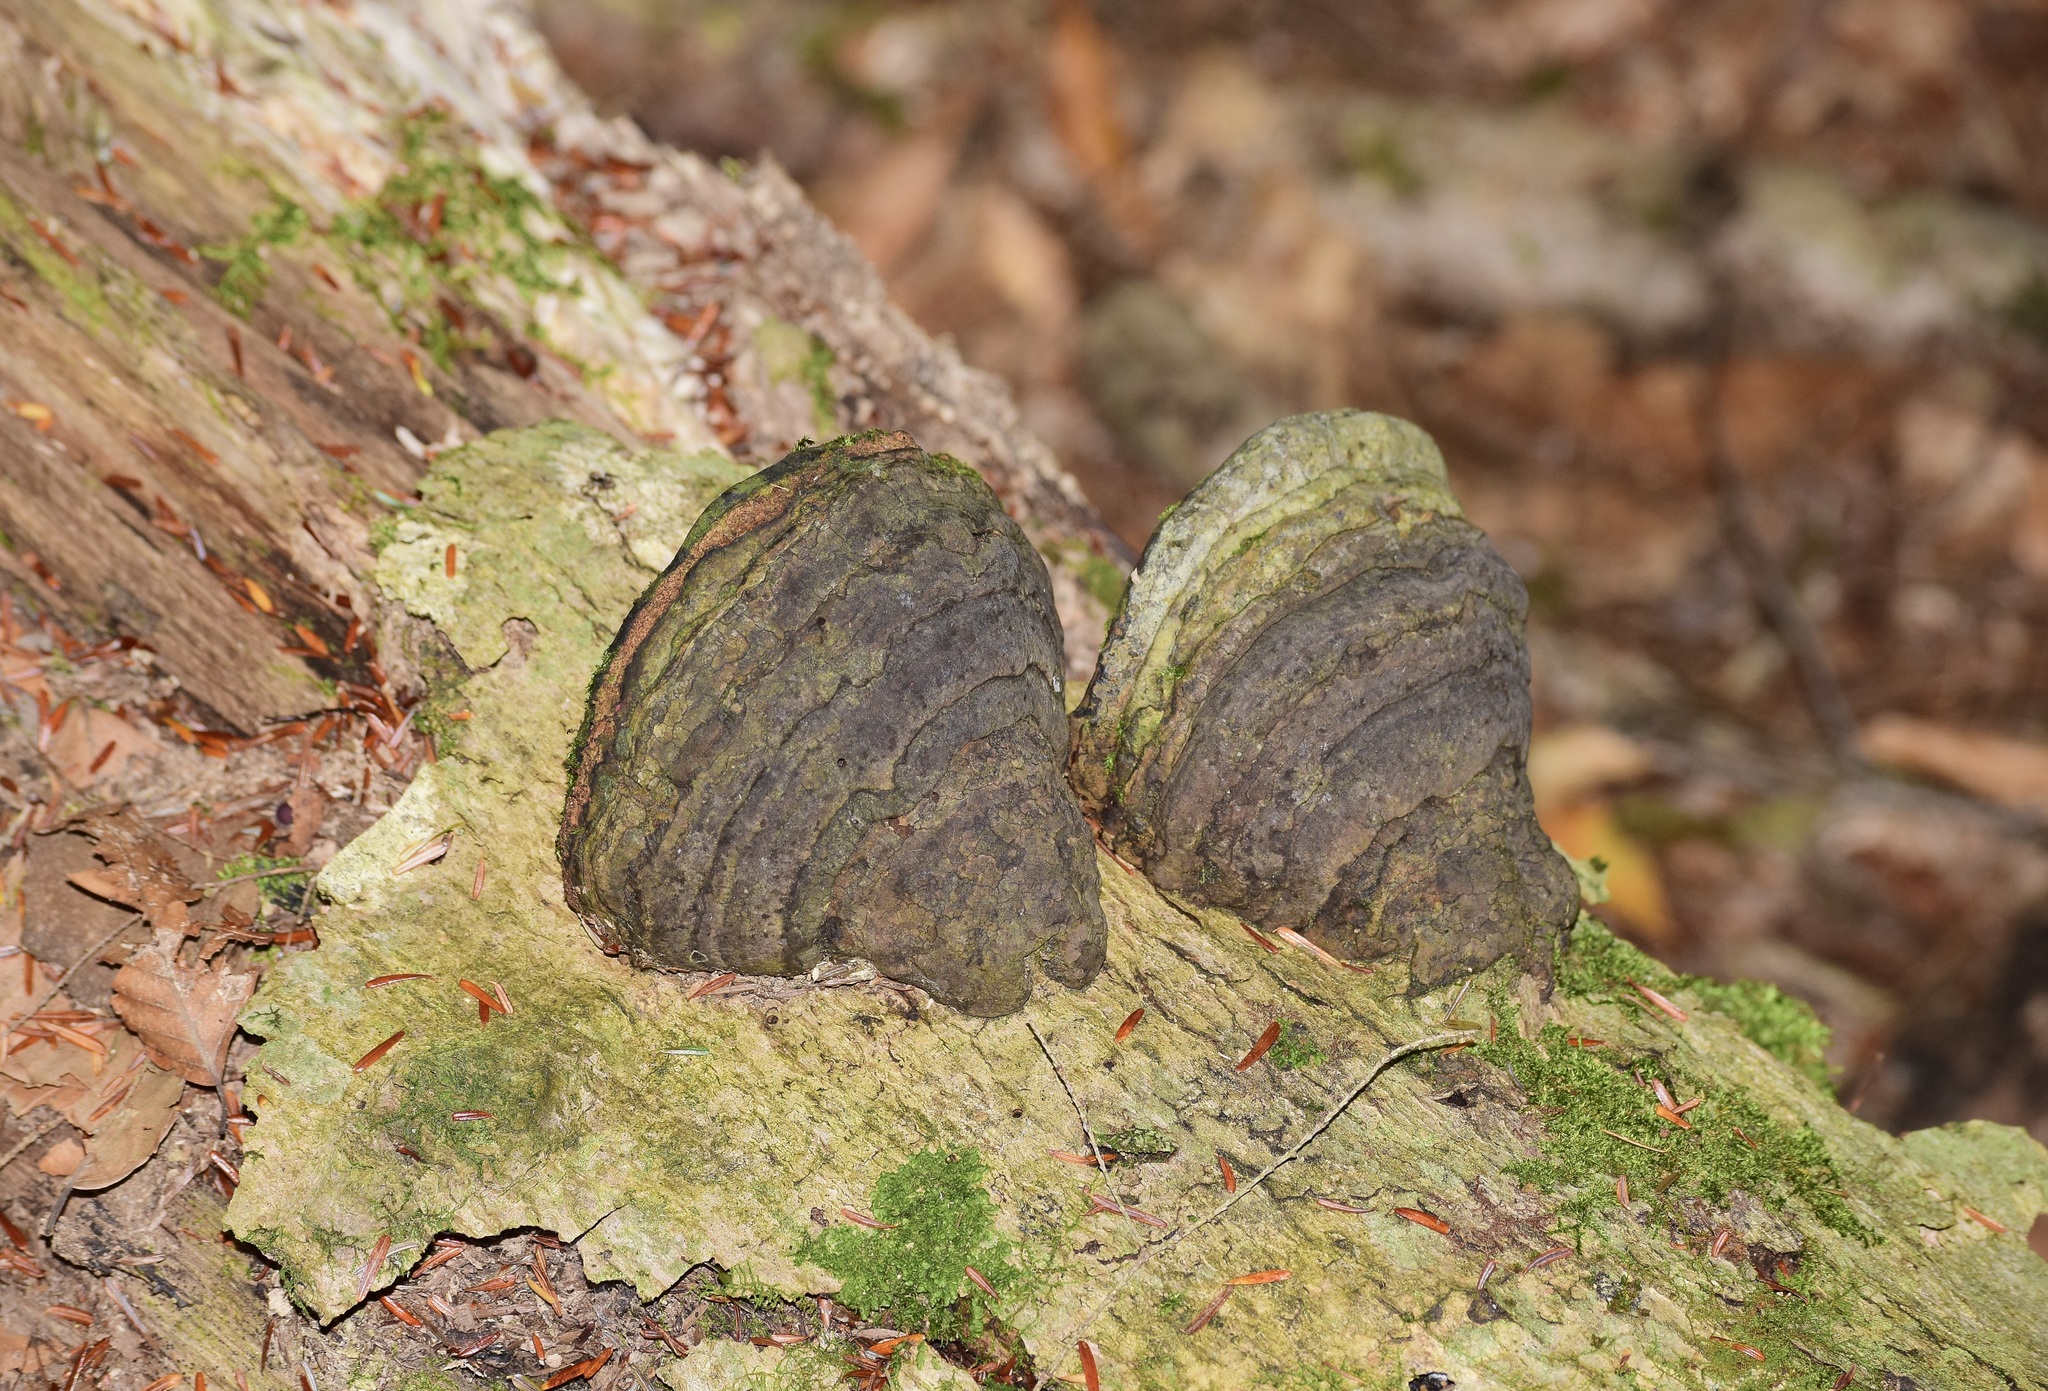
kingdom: Fungi
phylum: Basidiomycota
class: Agaricomycetes
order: Polyporales
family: Polyporaceae
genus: Fomes
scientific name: Fomes fomentarius
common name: Hoof fungus
